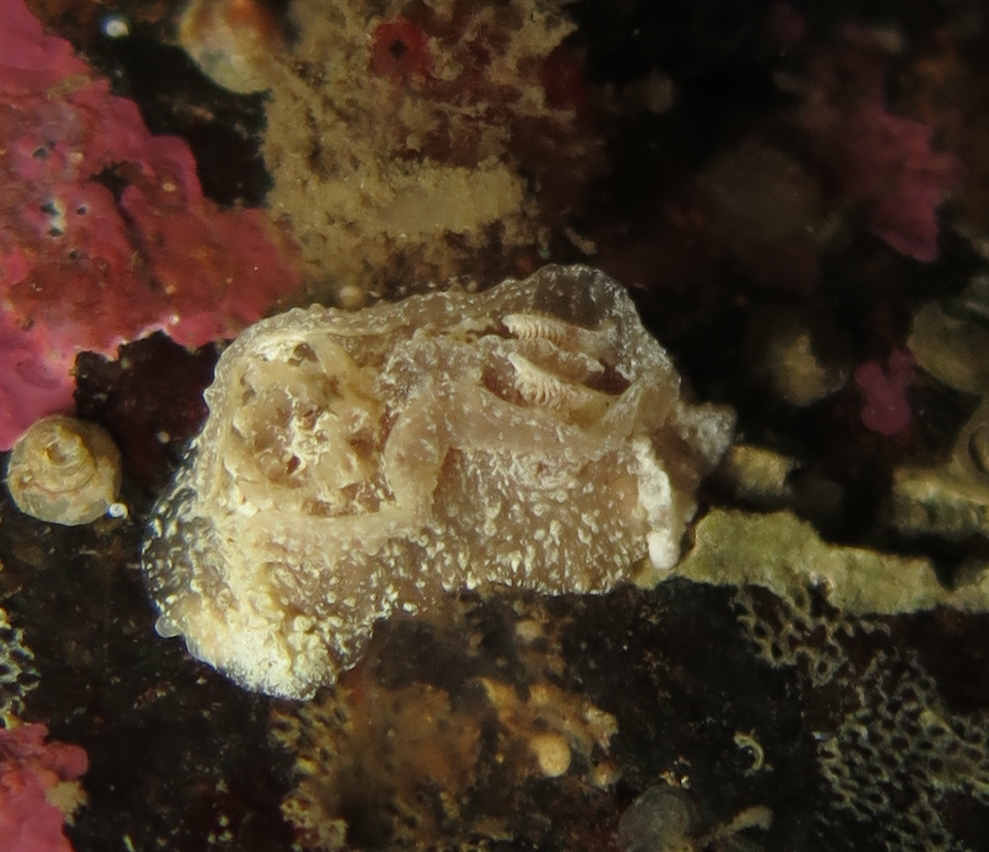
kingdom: Animalia
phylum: Mollusca
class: Gastropoda
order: Nudibranchia
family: Goniodorididae
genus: Pelagella
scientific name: Pelagella castanea
